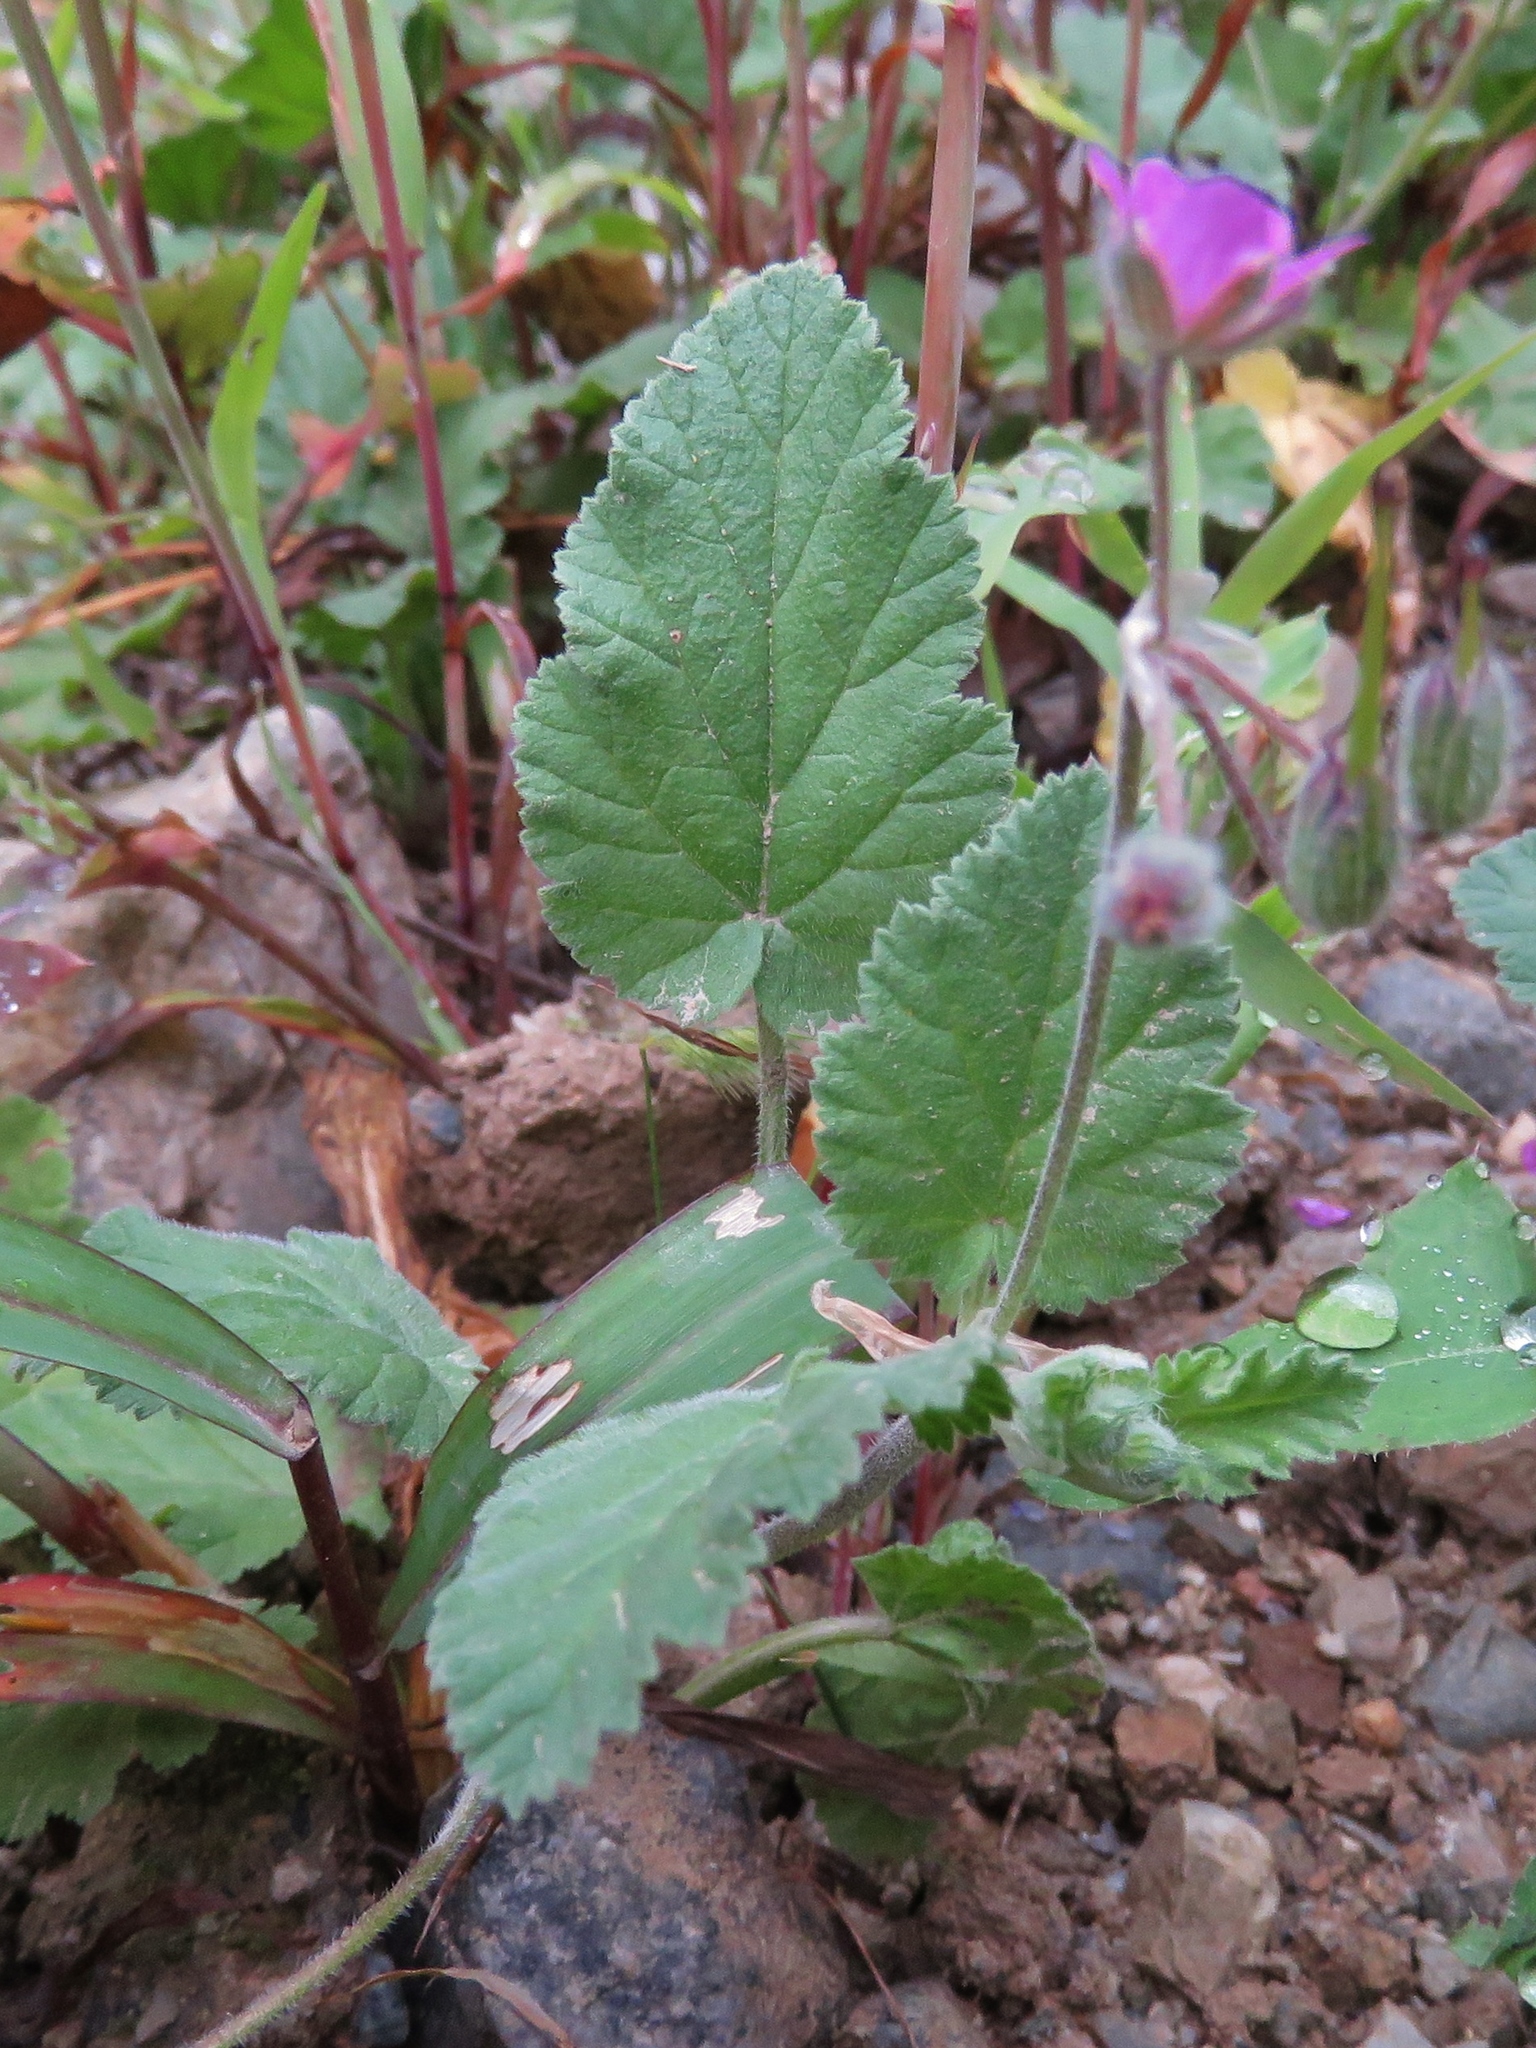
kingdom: Plantae
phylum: Tracheophyta
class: Magnoliopsida
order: Geraniales
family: Geraniaceae
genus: Erodium
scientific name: Erodium malacoides
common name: Soft stork's-bill
